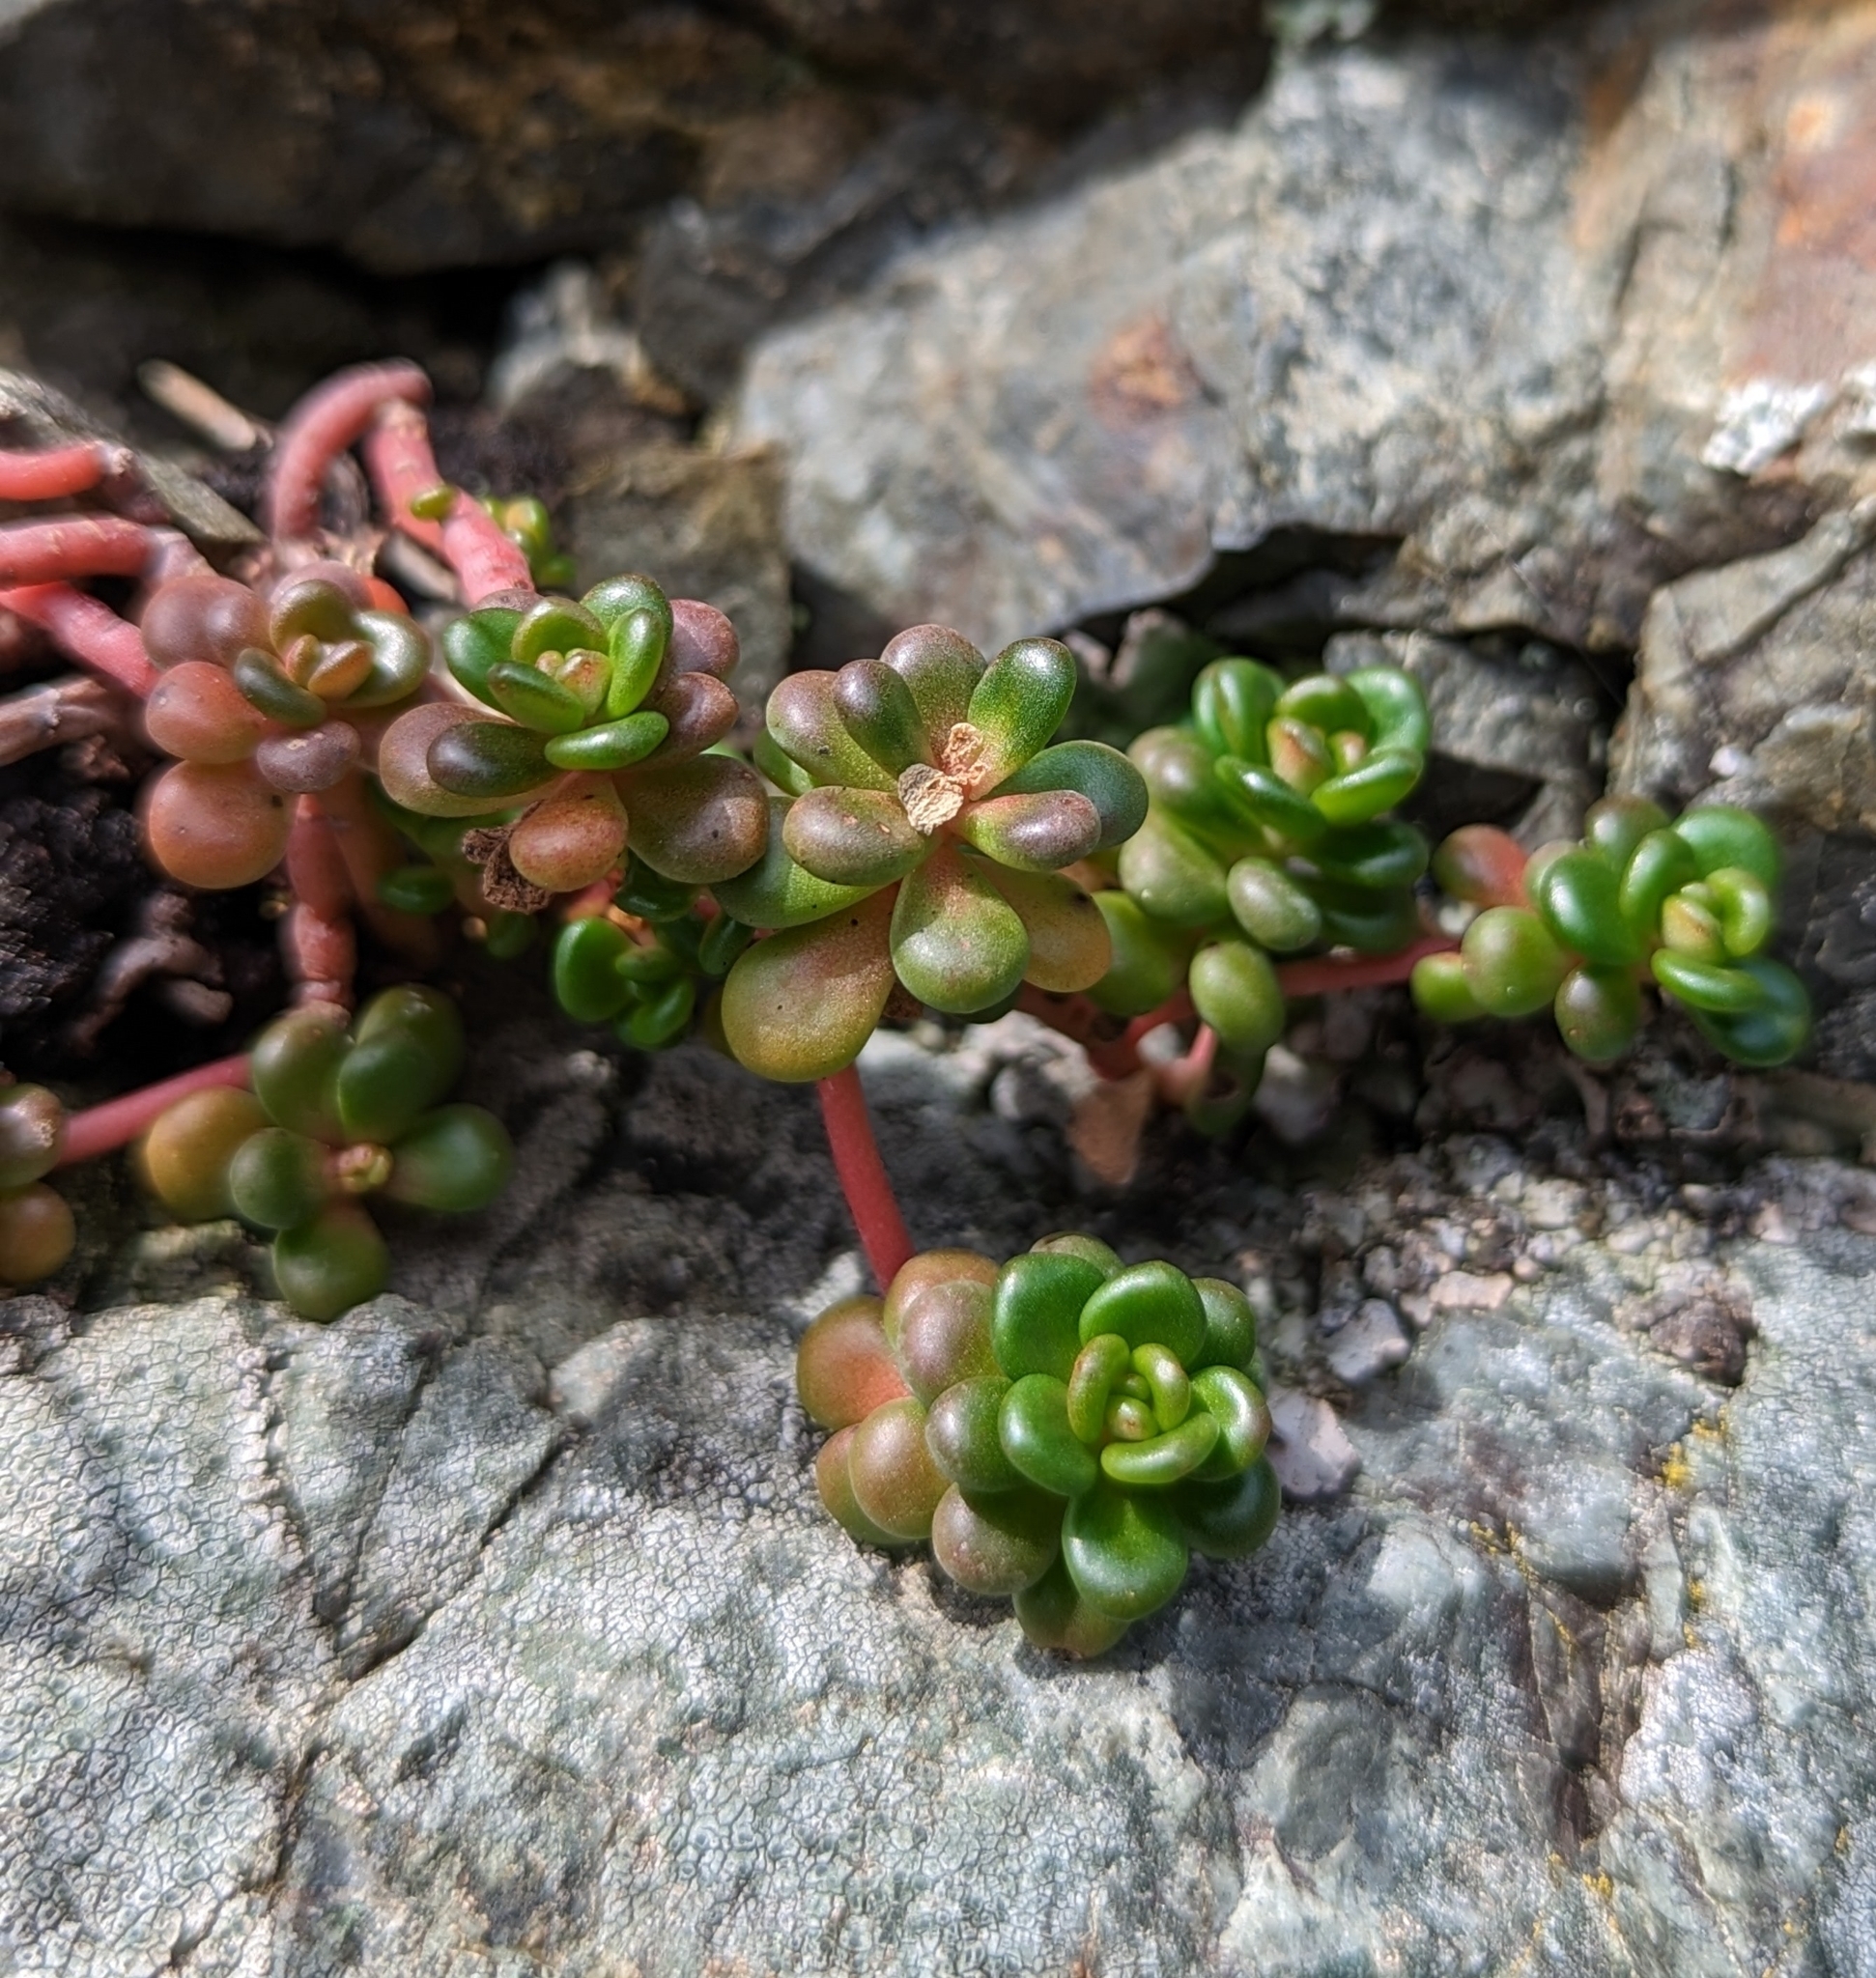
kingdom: Plantae
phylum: Tracheophyta
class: Magnoliopsida
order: Saxifragales
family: Crassulaceae
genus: Sedum
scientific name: Sedum oreganum
